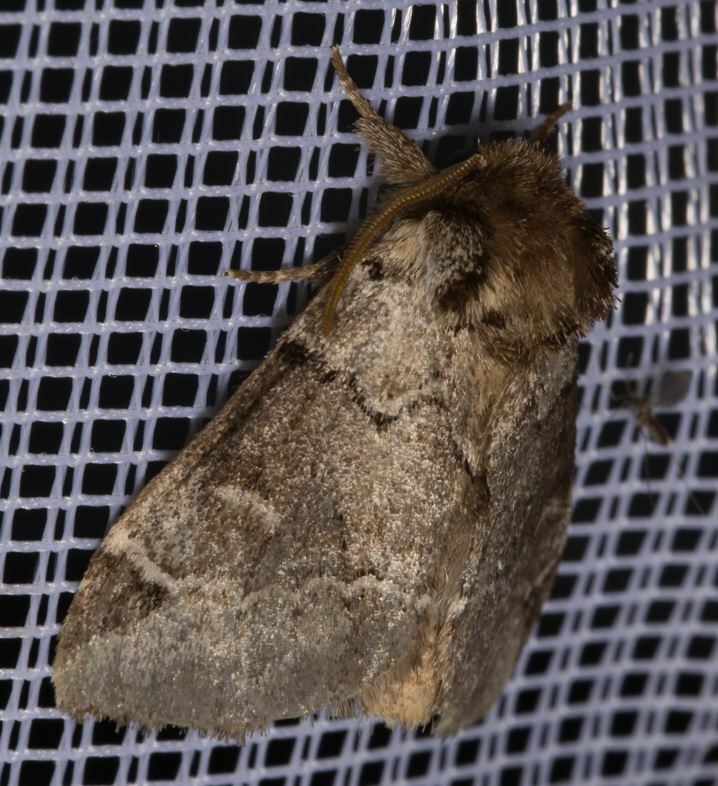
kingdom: Animalia
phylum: Arthropoda
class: Insecta
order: Lepidoptera
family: Notodontidae
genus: Drymonia
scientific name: Drymonia obliterata
